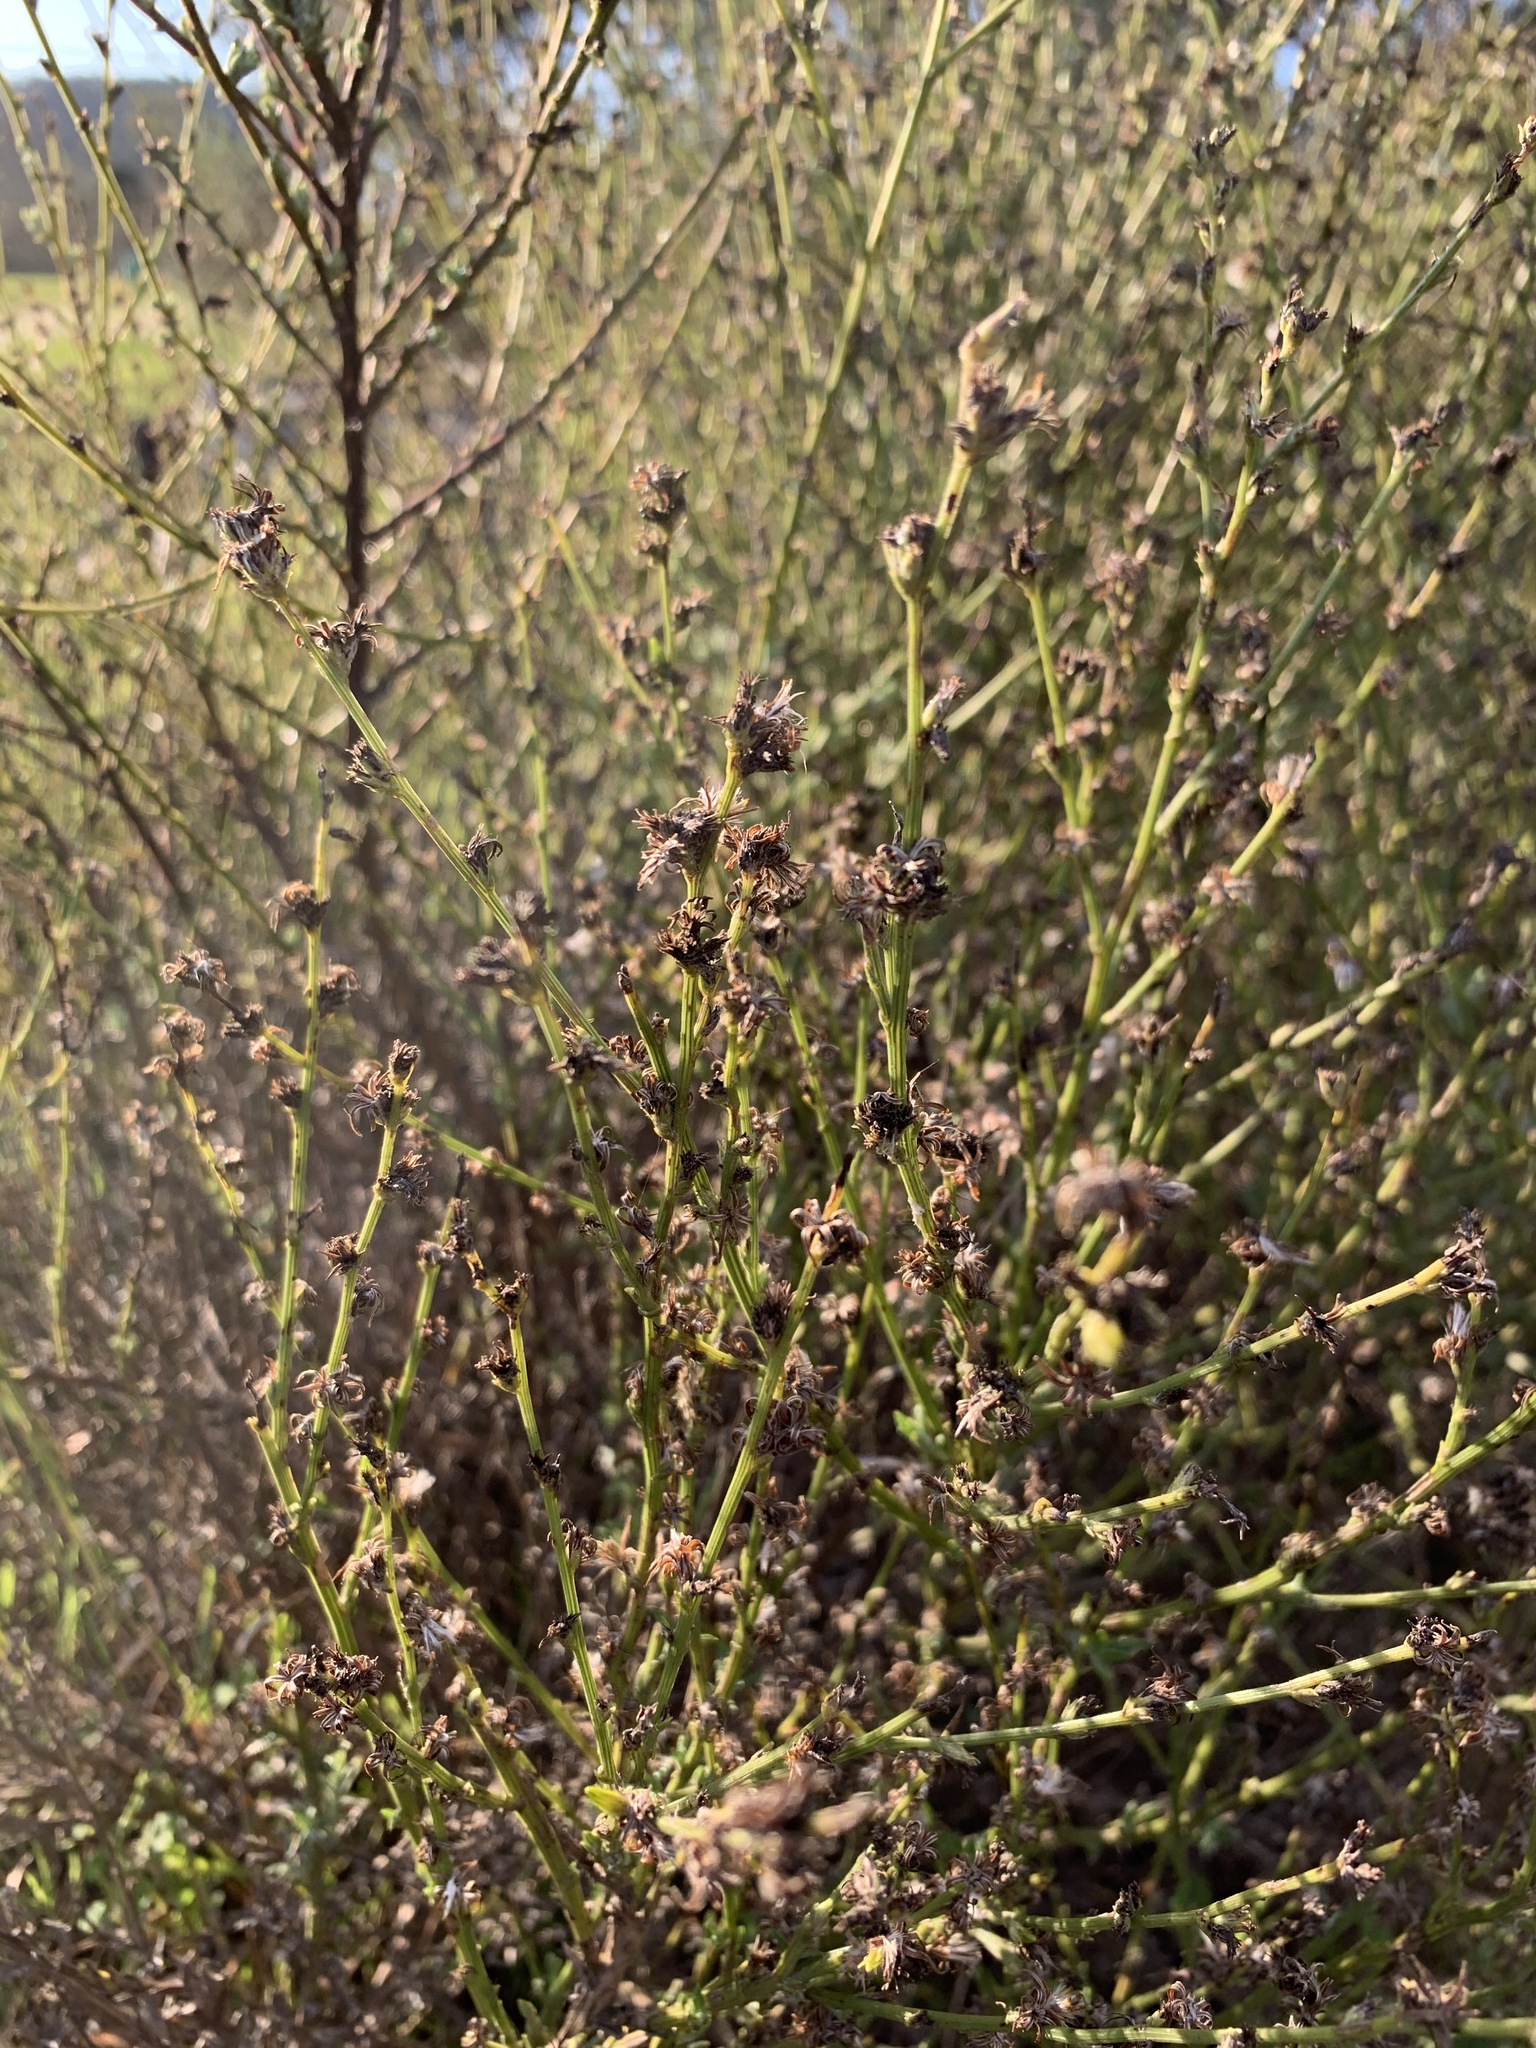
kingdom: Plantae
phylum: Tracheophyta
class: Magnoliopsida
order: Asterales
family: Asteraceae
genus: Senecio
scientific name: Senecio pubigerus
